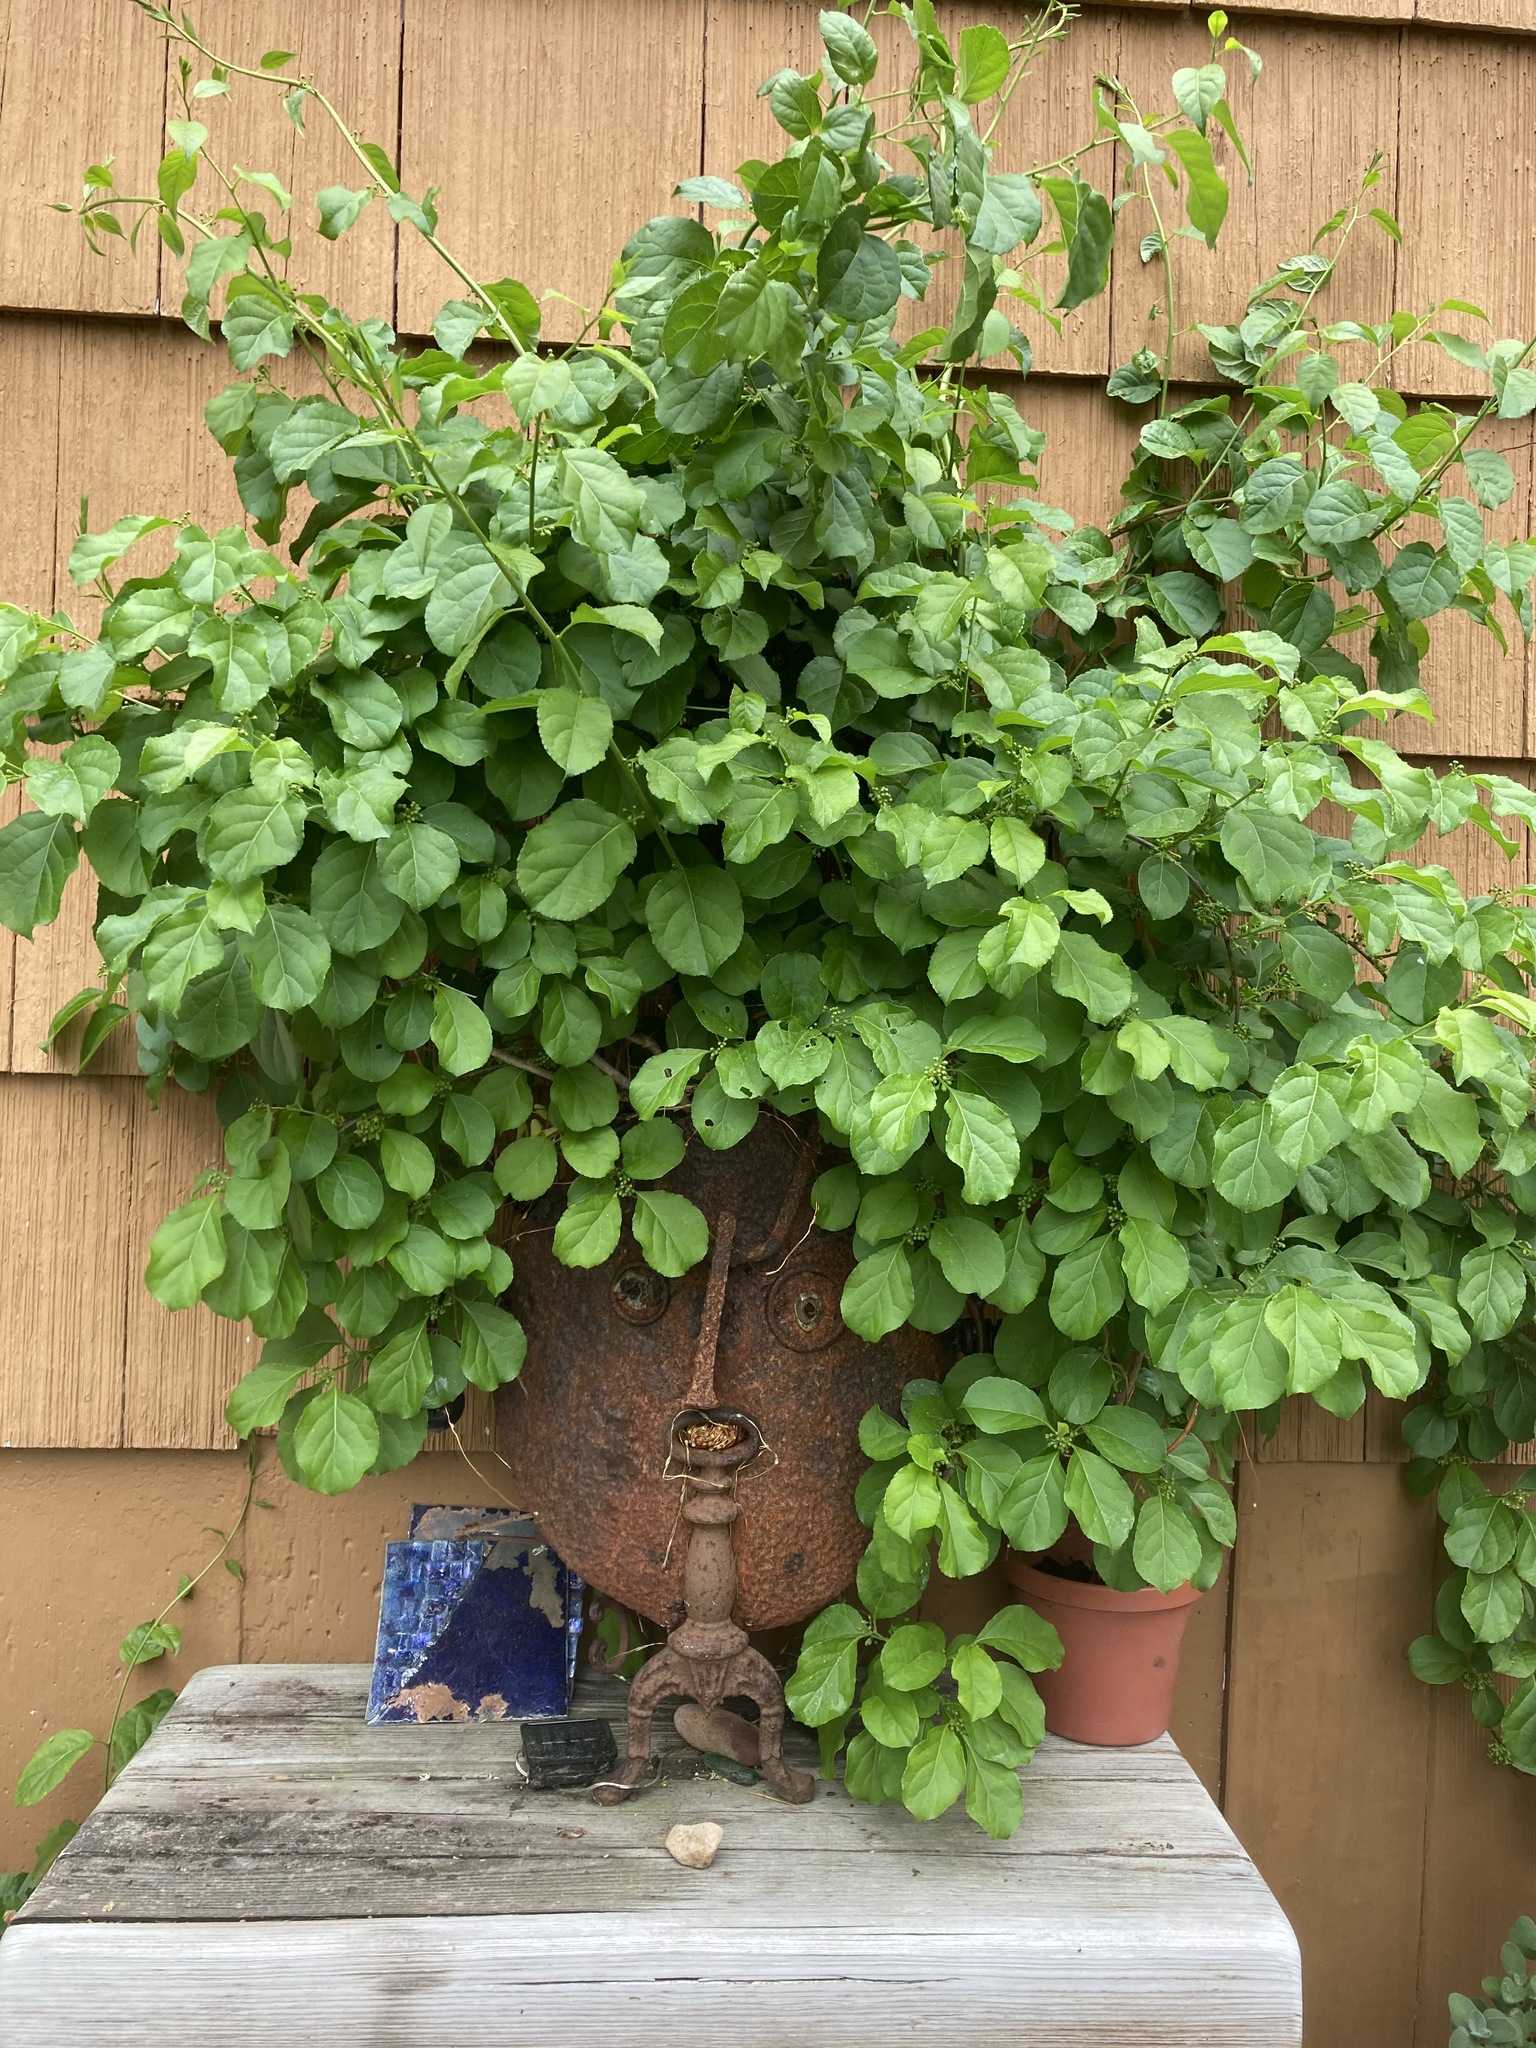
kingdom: Plantae
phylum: Tracheophyta
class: Magnoliopsida
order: Celastrales
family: Celastraceae
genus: Celastrus
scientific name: Celastrus orbiculatus
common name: Oriental bittersweet
